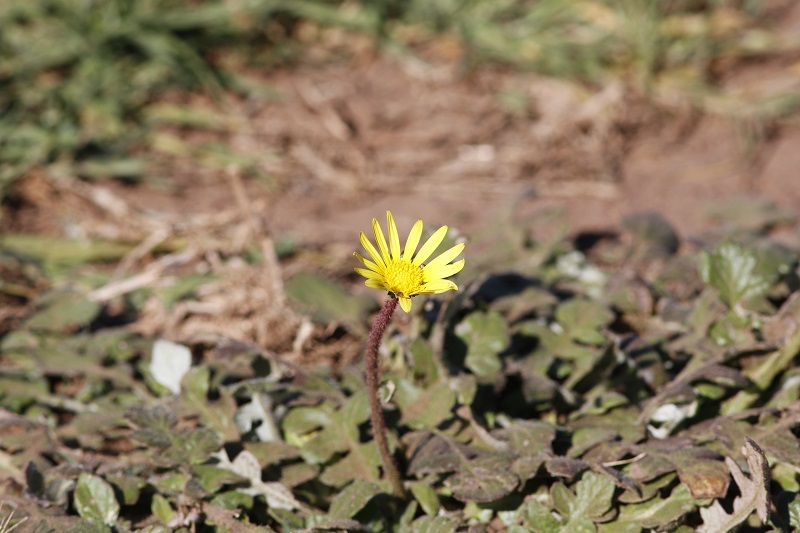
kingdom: Plantae
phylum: Tracheophyta
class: Magnoliopsida
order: Asterales
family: Asteraceae
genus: Arctotheca
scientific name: Arctotheca prostrata
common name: Capeweed
